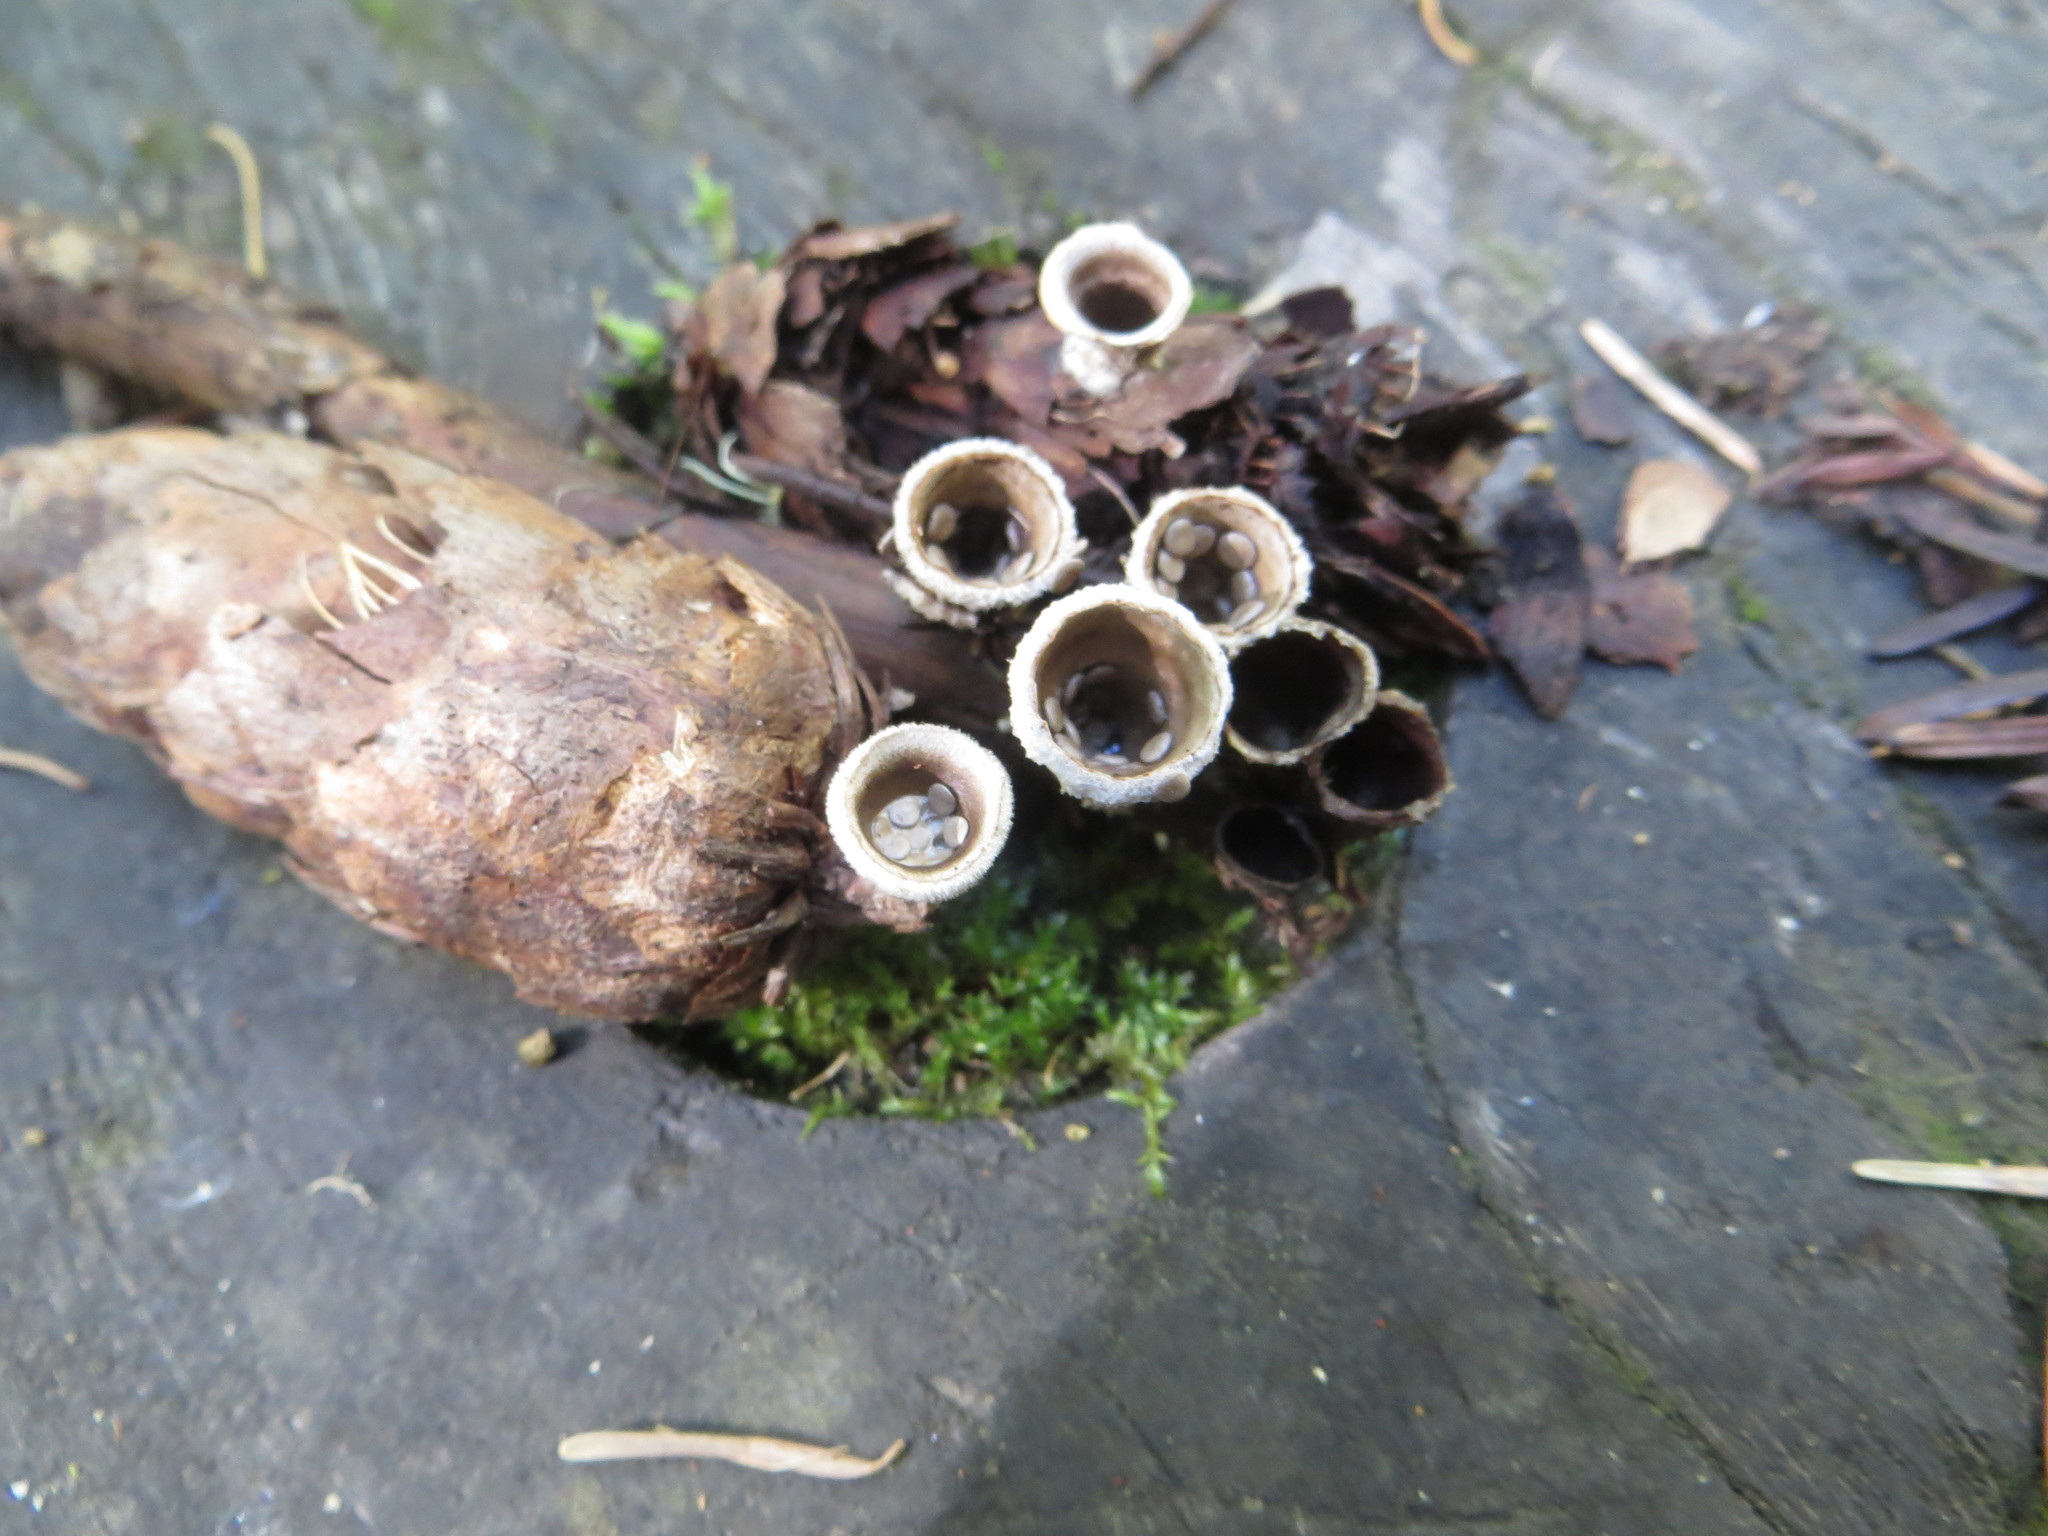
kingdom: Fungi
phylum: Basidiomycota
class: Agaricomycetes
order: Agaricales
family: Agaricaceae
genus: Nidula
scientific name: Nidula candida
